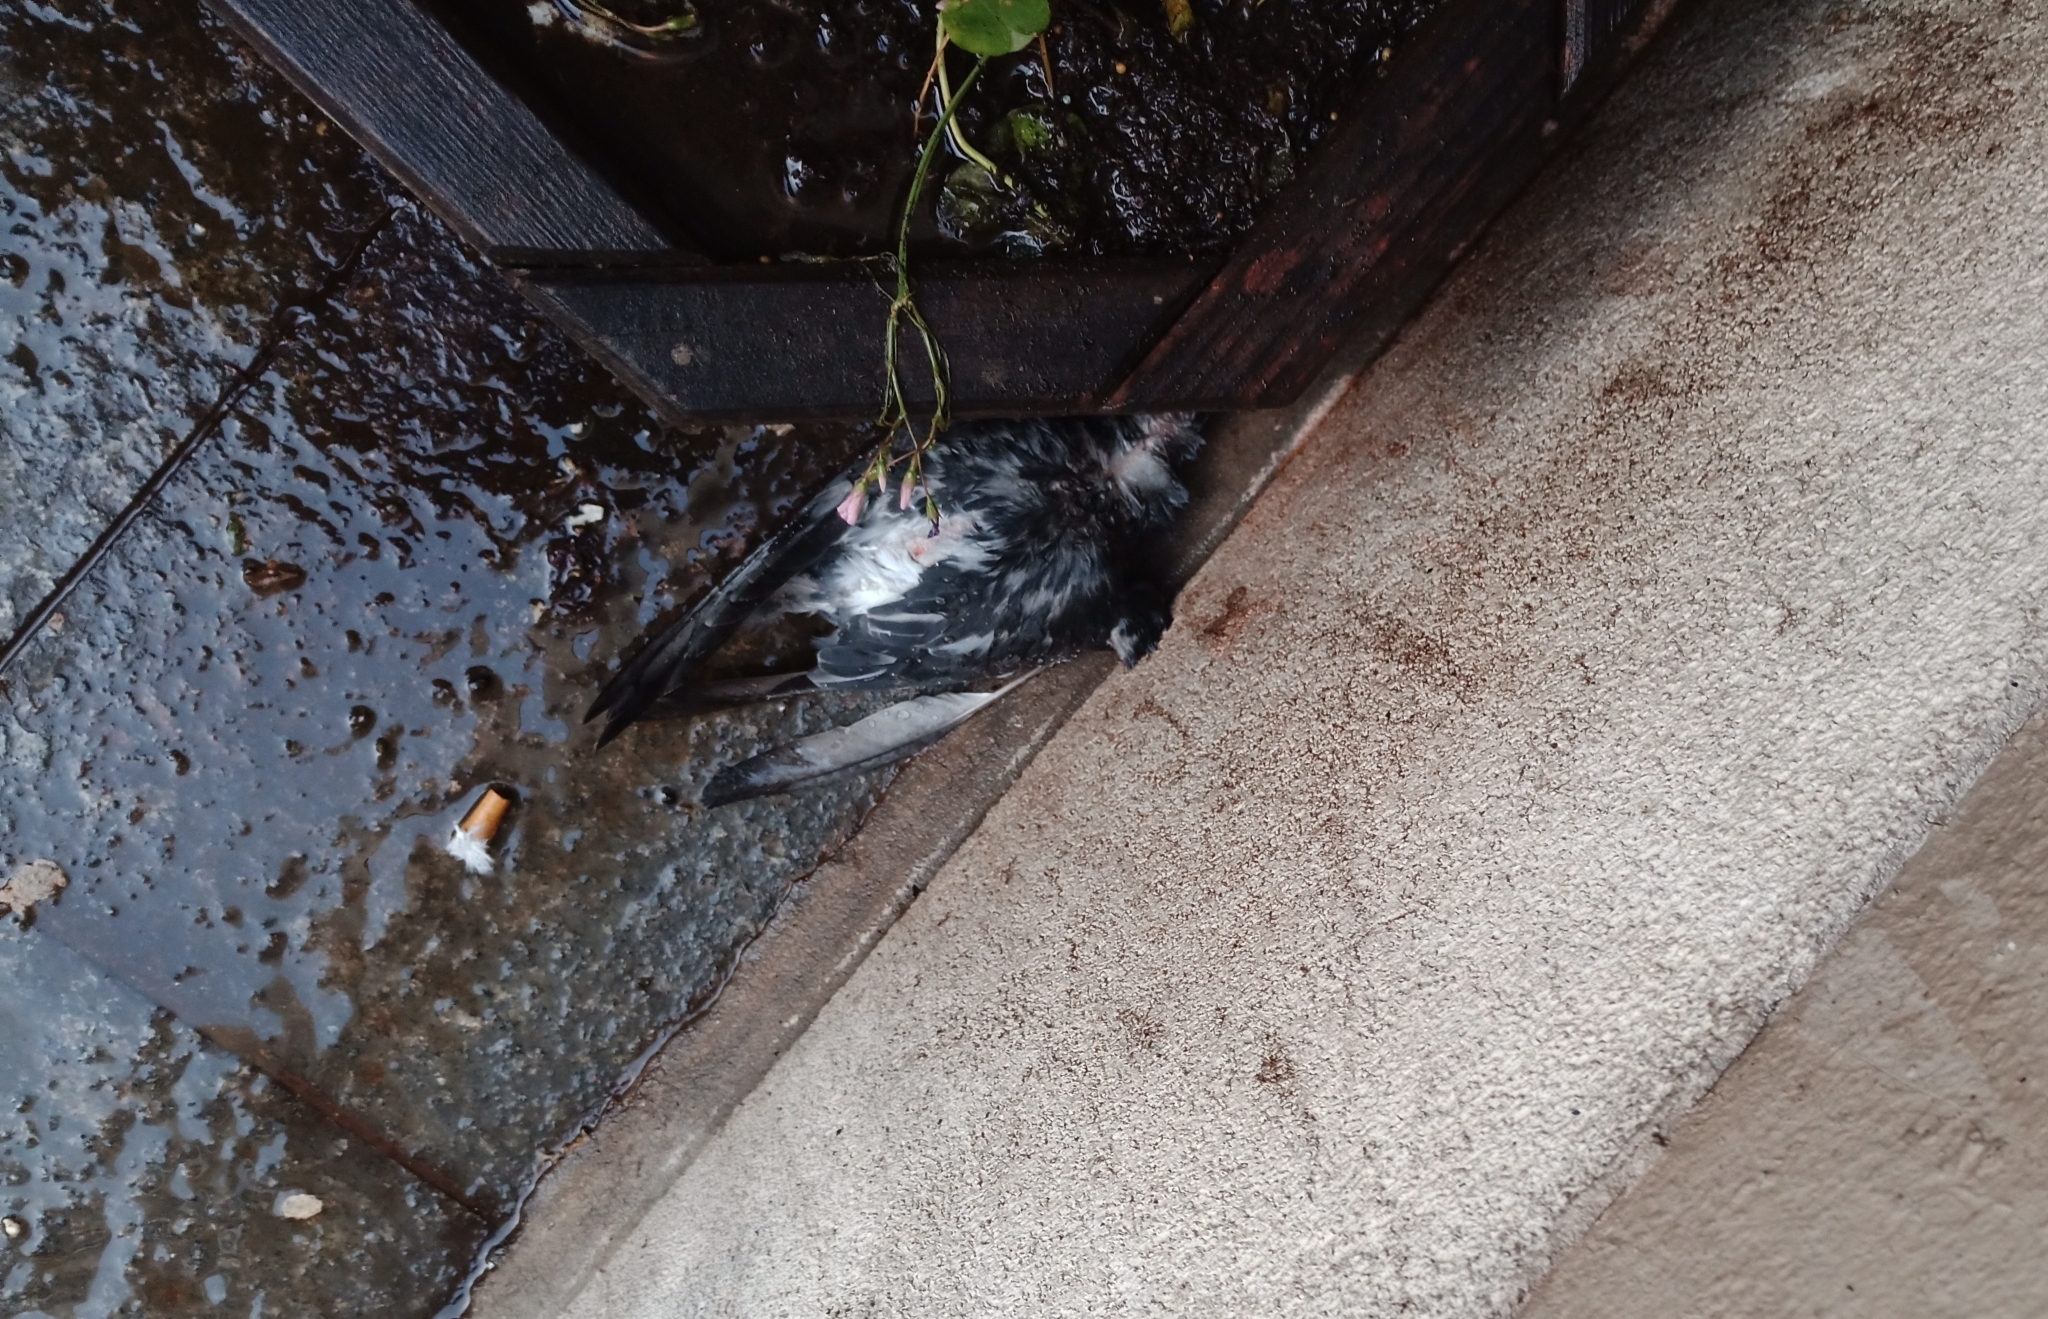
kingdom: Animalia
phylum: Chordata
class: Aves
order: Columbiformes
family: Columbidae
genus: Columba
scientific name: Columba livia
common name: Rock pigeon
